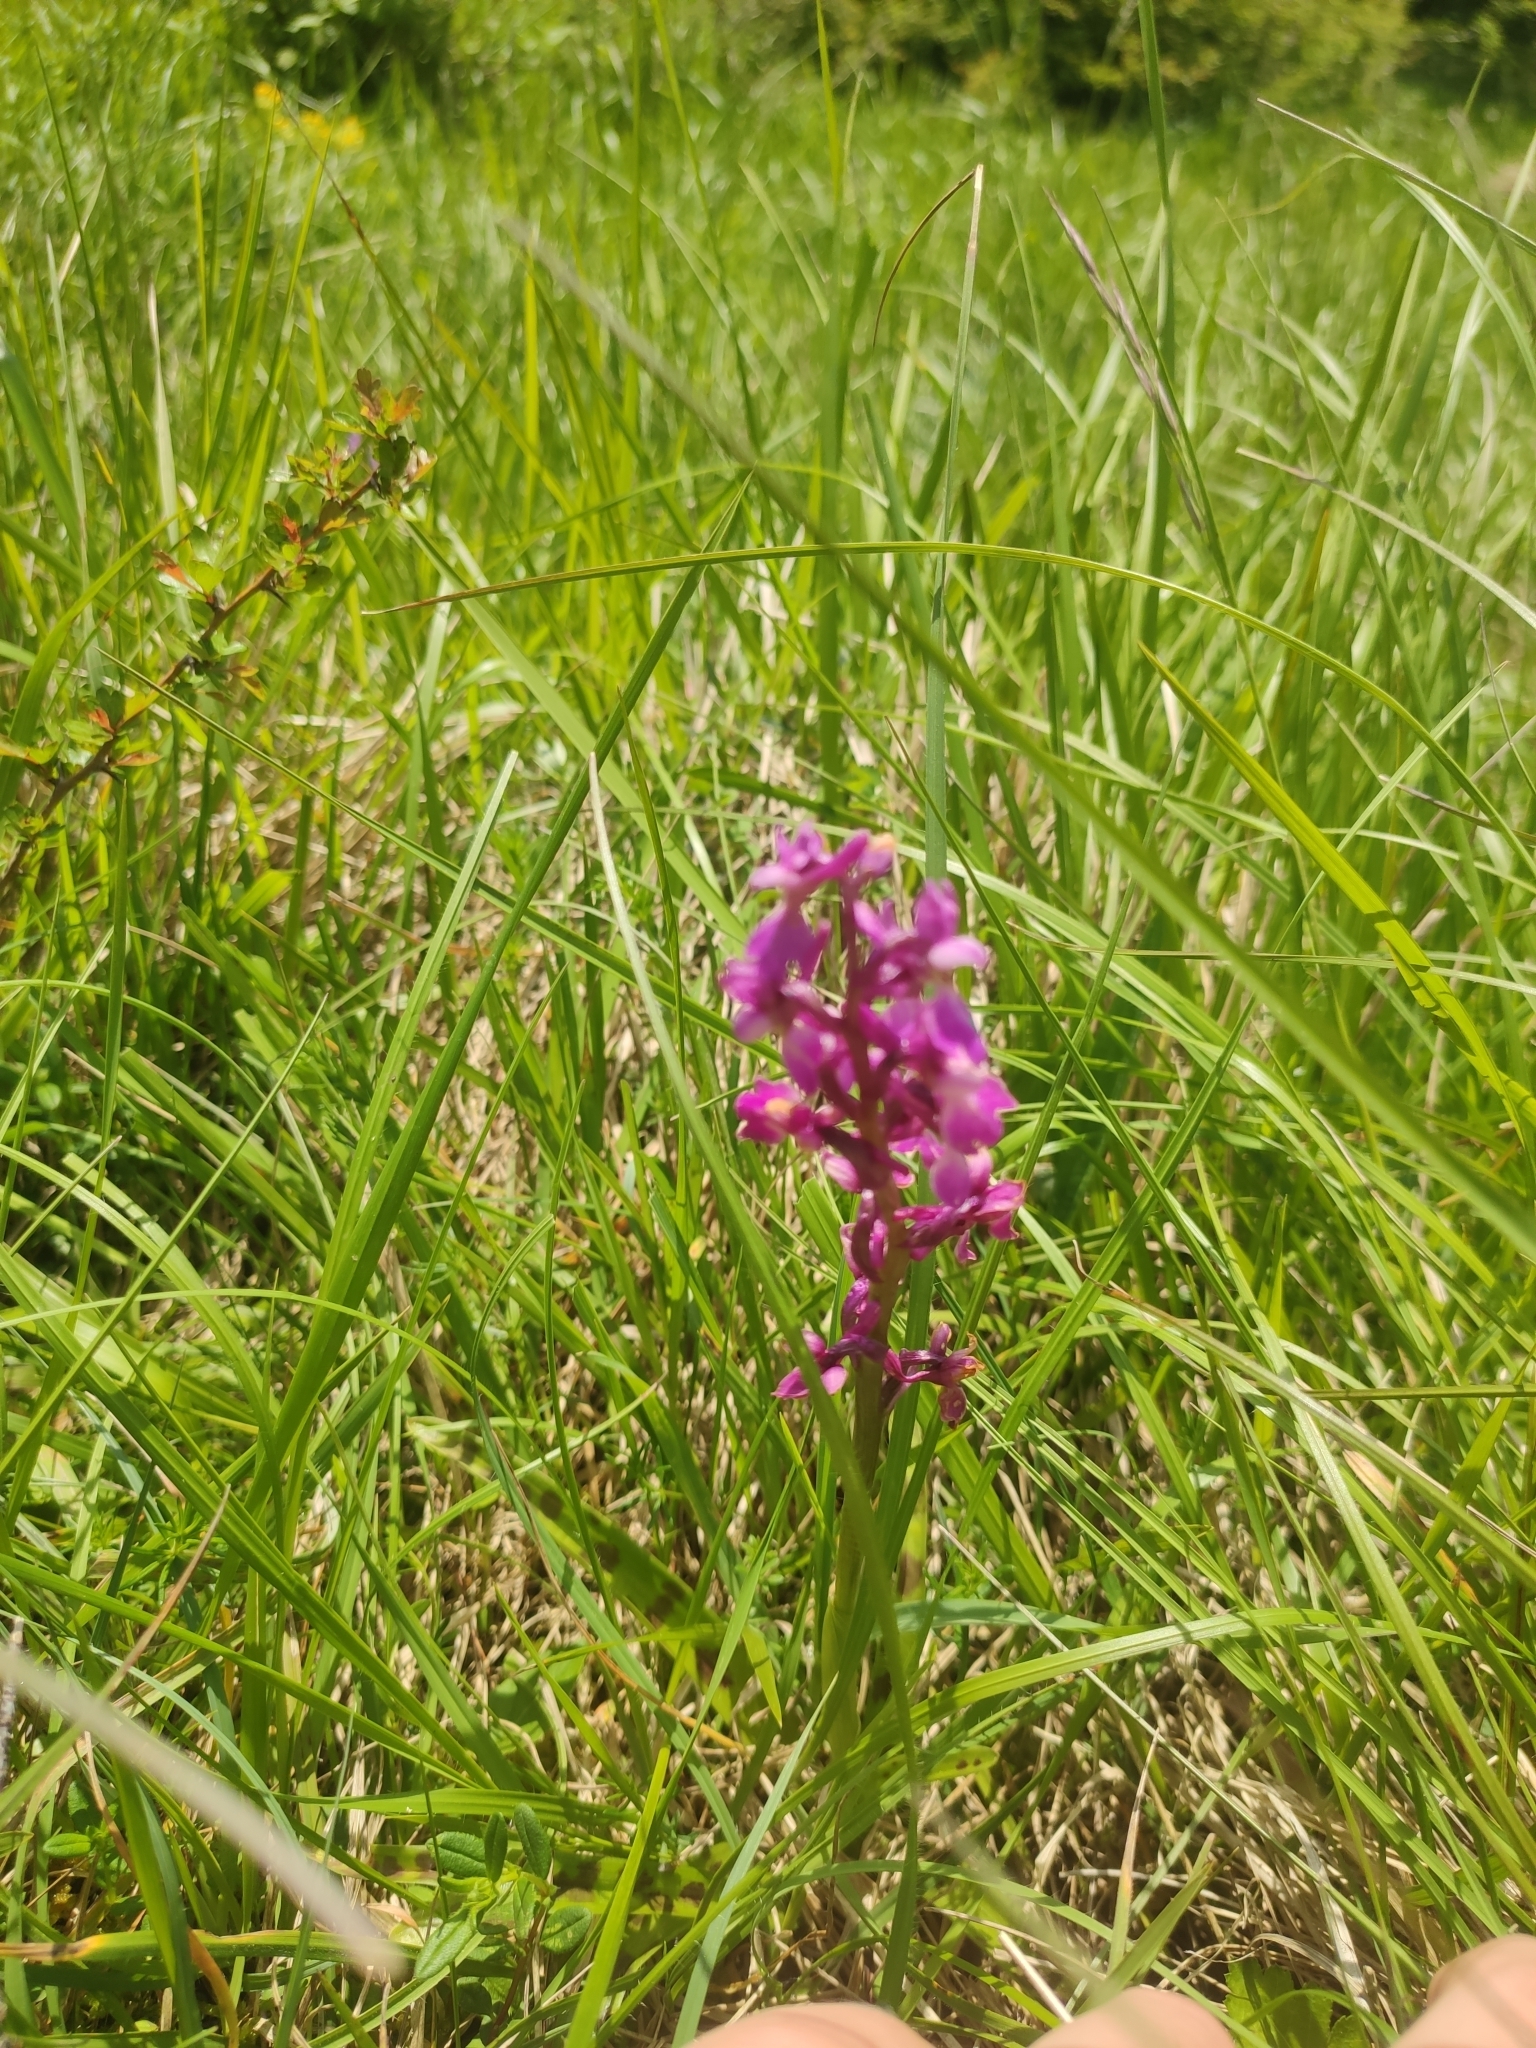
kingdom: Plantae
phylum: Tracheophyta
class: Liliopsida
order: Asparagales
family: Orchidaceae
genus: Orchis
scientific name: Orchis mascula
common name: Early-purple orchid
